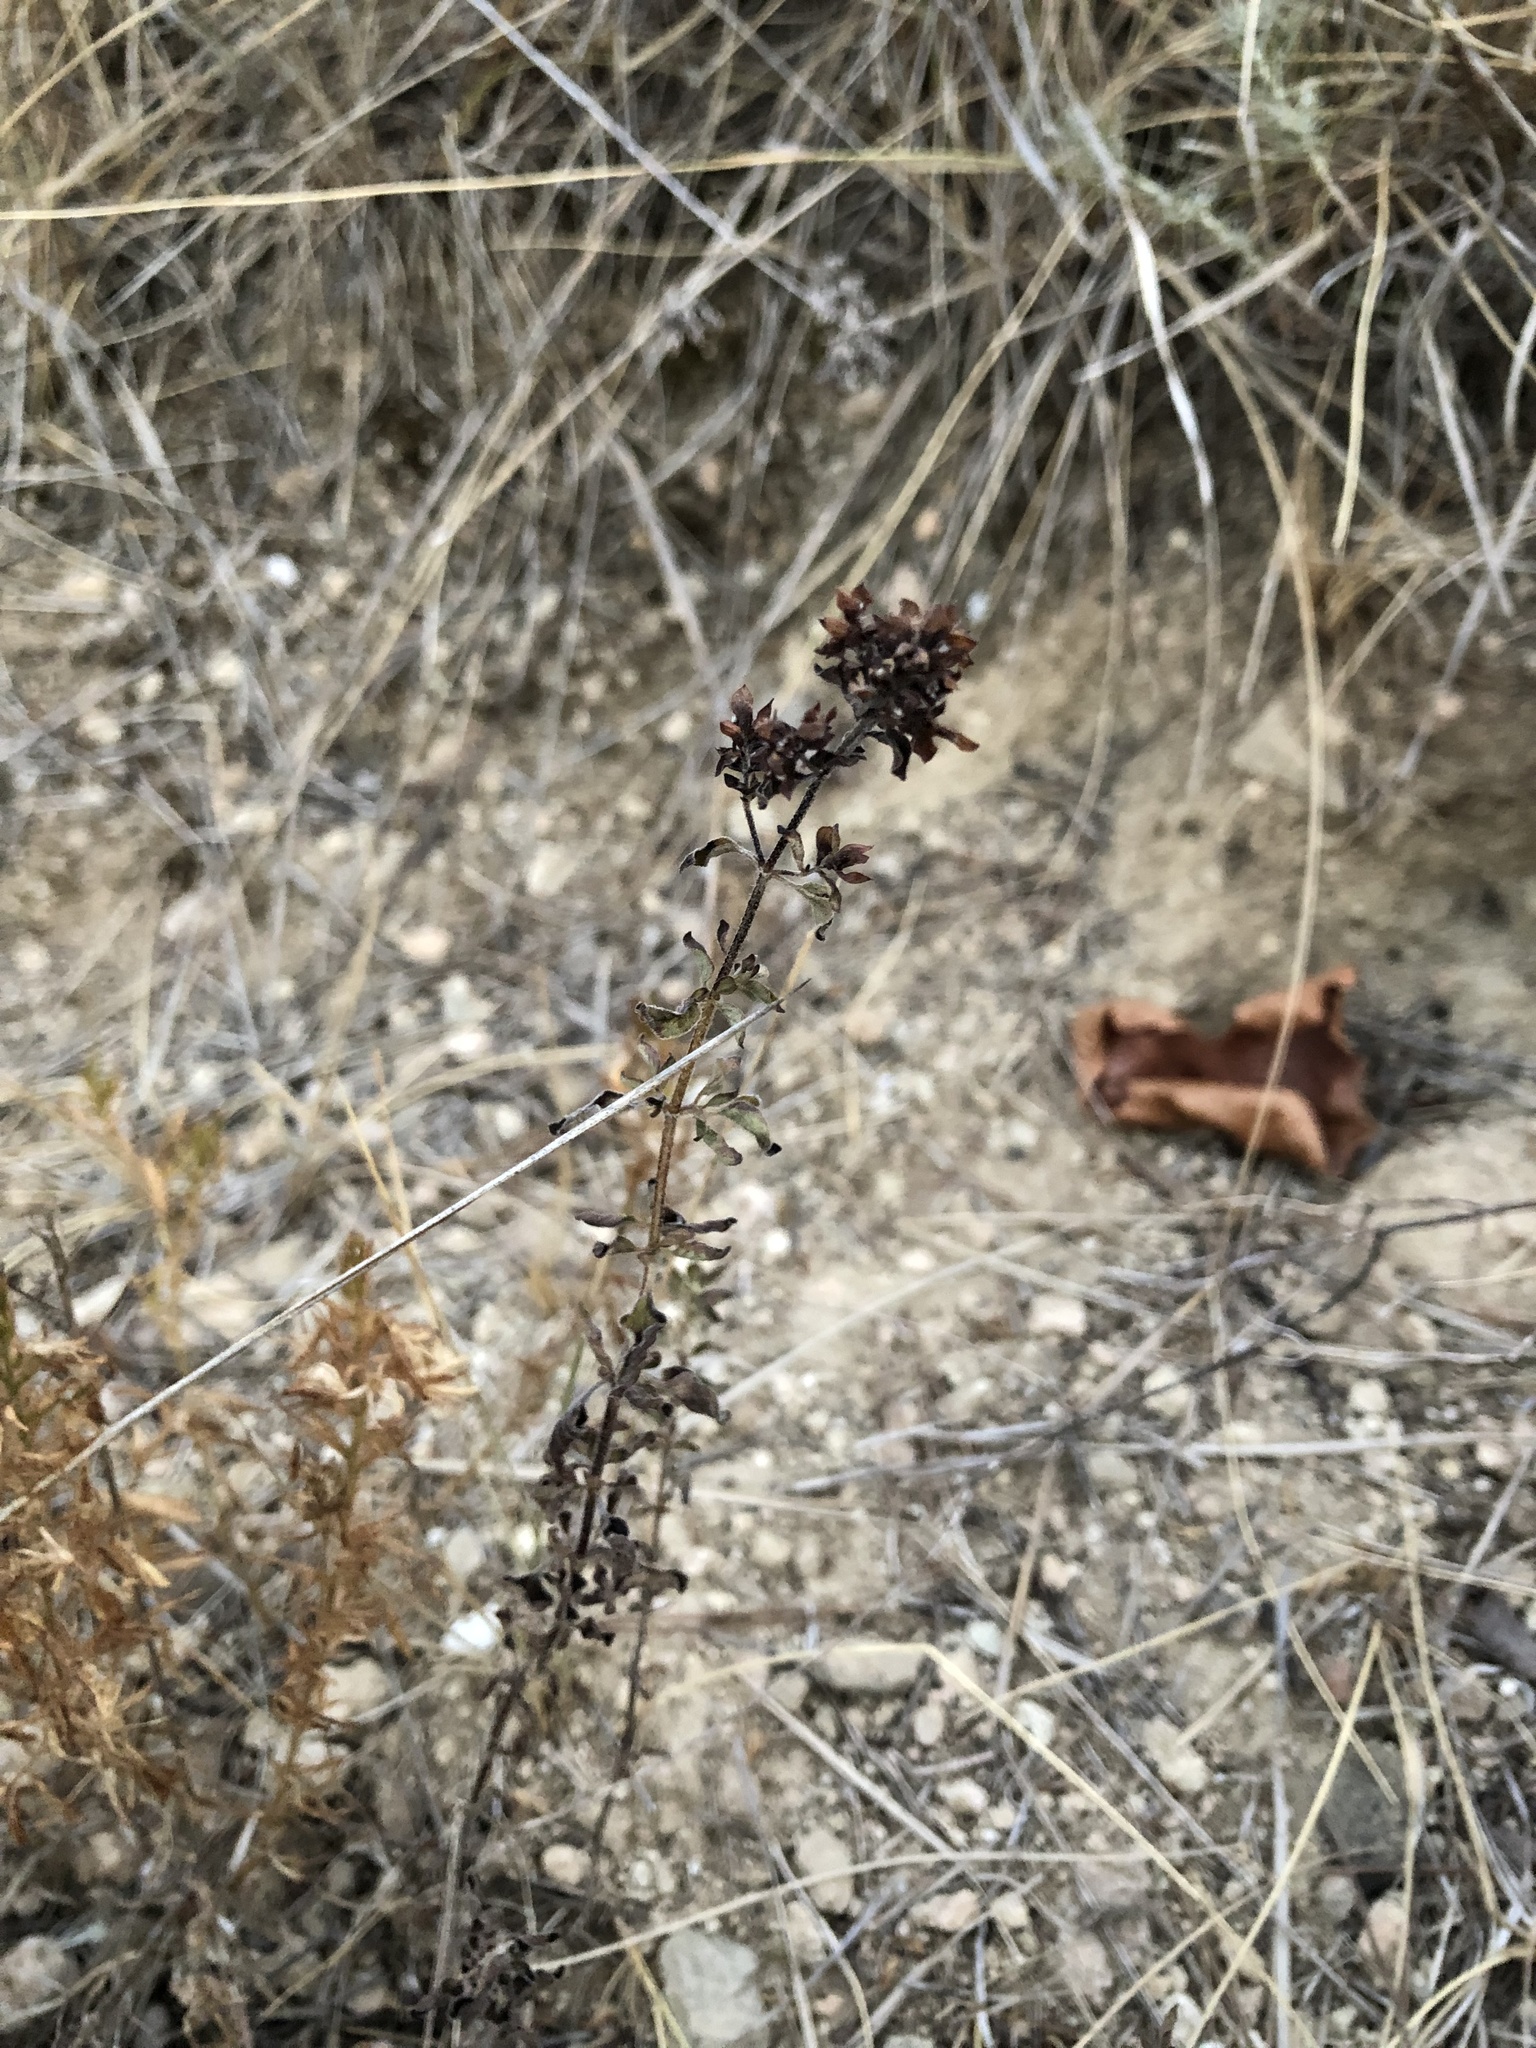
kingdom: Plantae
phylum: Tracheophyta
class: Magnoliopsida
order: Lamiales
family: Lamiaceae
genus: Origanum
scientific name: Origanum vulgare
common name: Wild marjoram
